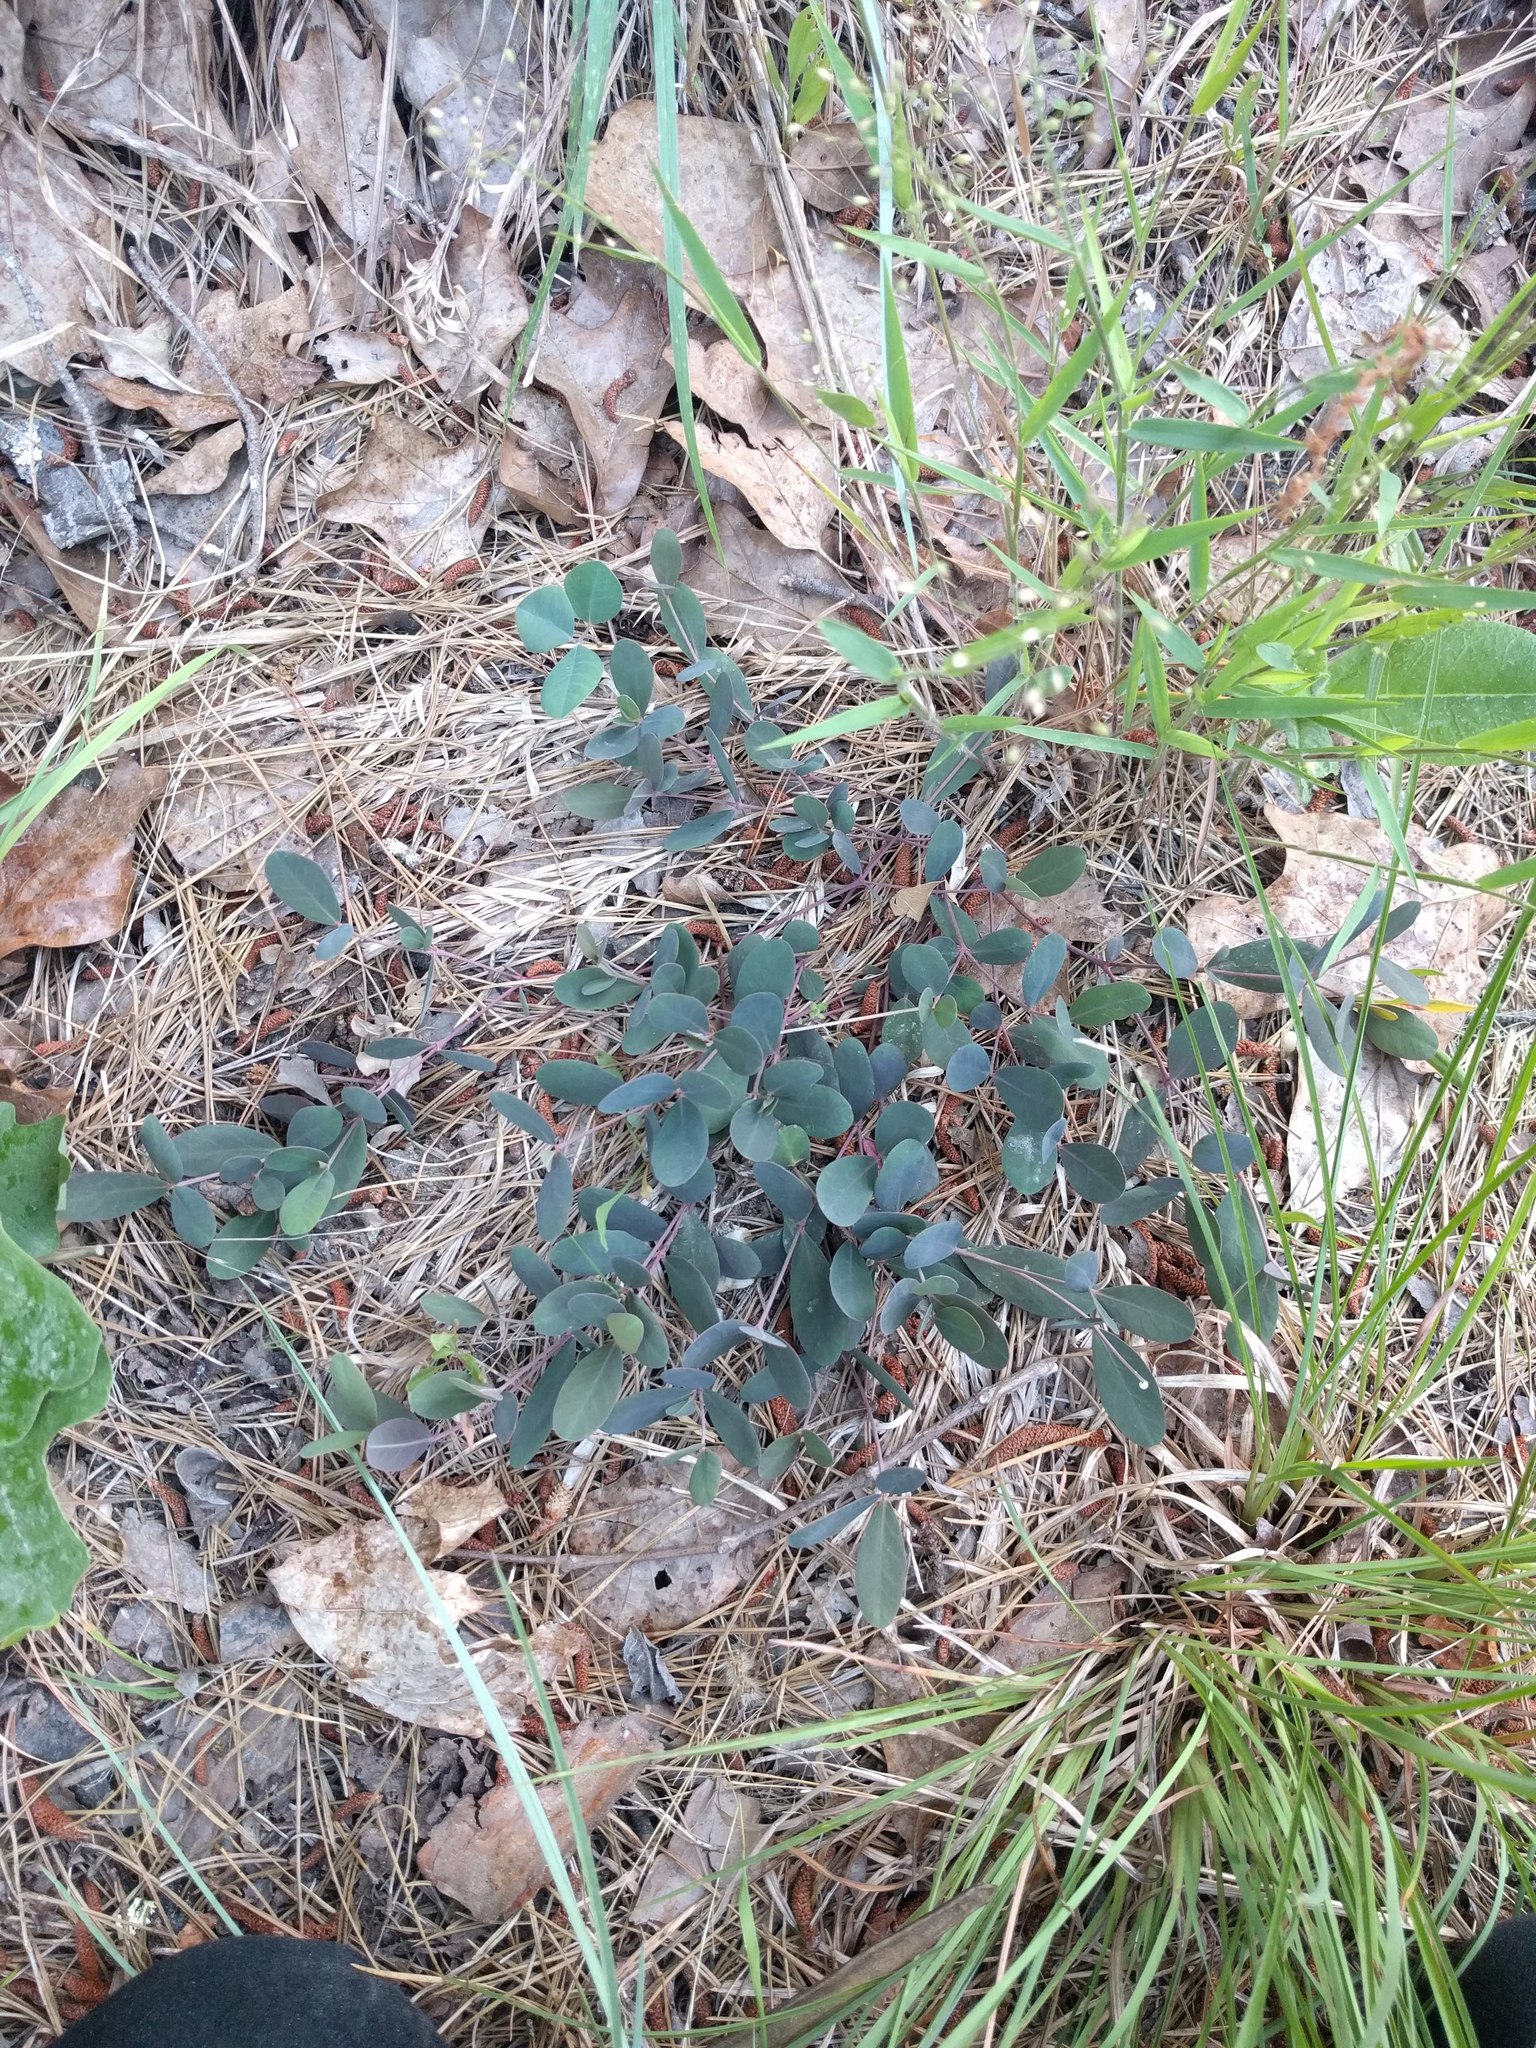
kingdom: Plantae
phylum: Tracheophyta
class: Magnoliopsida
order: Malpighiales
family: Euphorbiaceae
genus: Euphorbia
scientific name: Euphorbia ipecacuanhae
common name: Carolina ipecac
